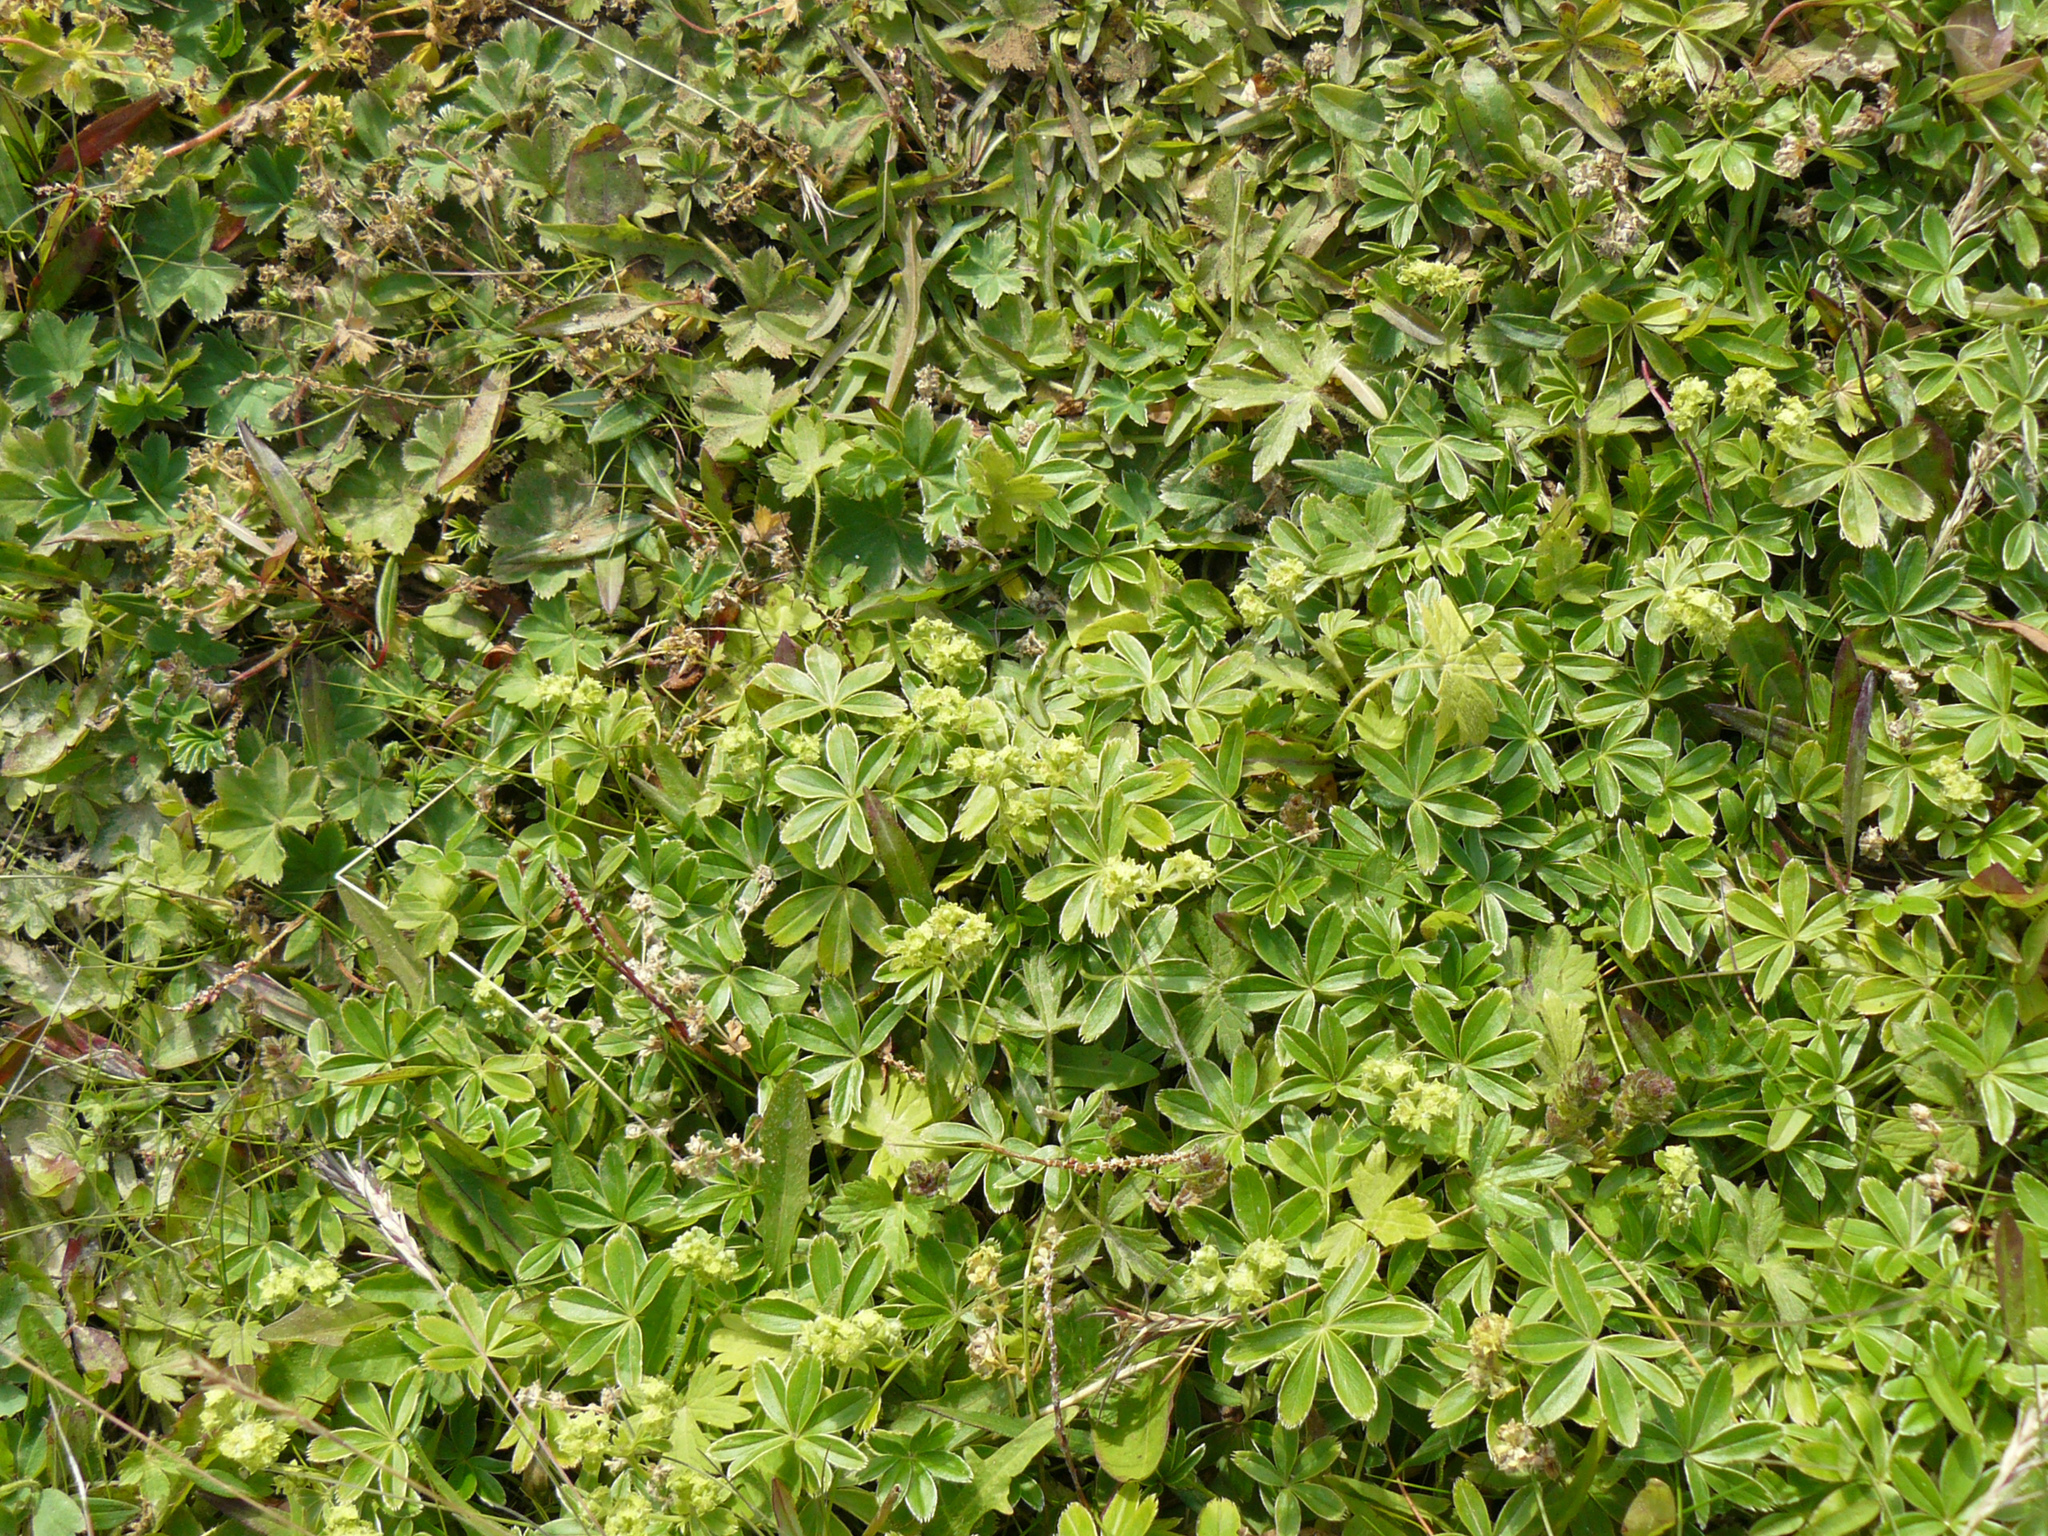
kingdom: Plantae
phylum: Tracheophyta
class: Magnoliopsida
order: Rosales
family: Rosaceae
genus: Alchemilla
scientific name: Alchemilla alpina
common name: Alpine lady's-mantle
